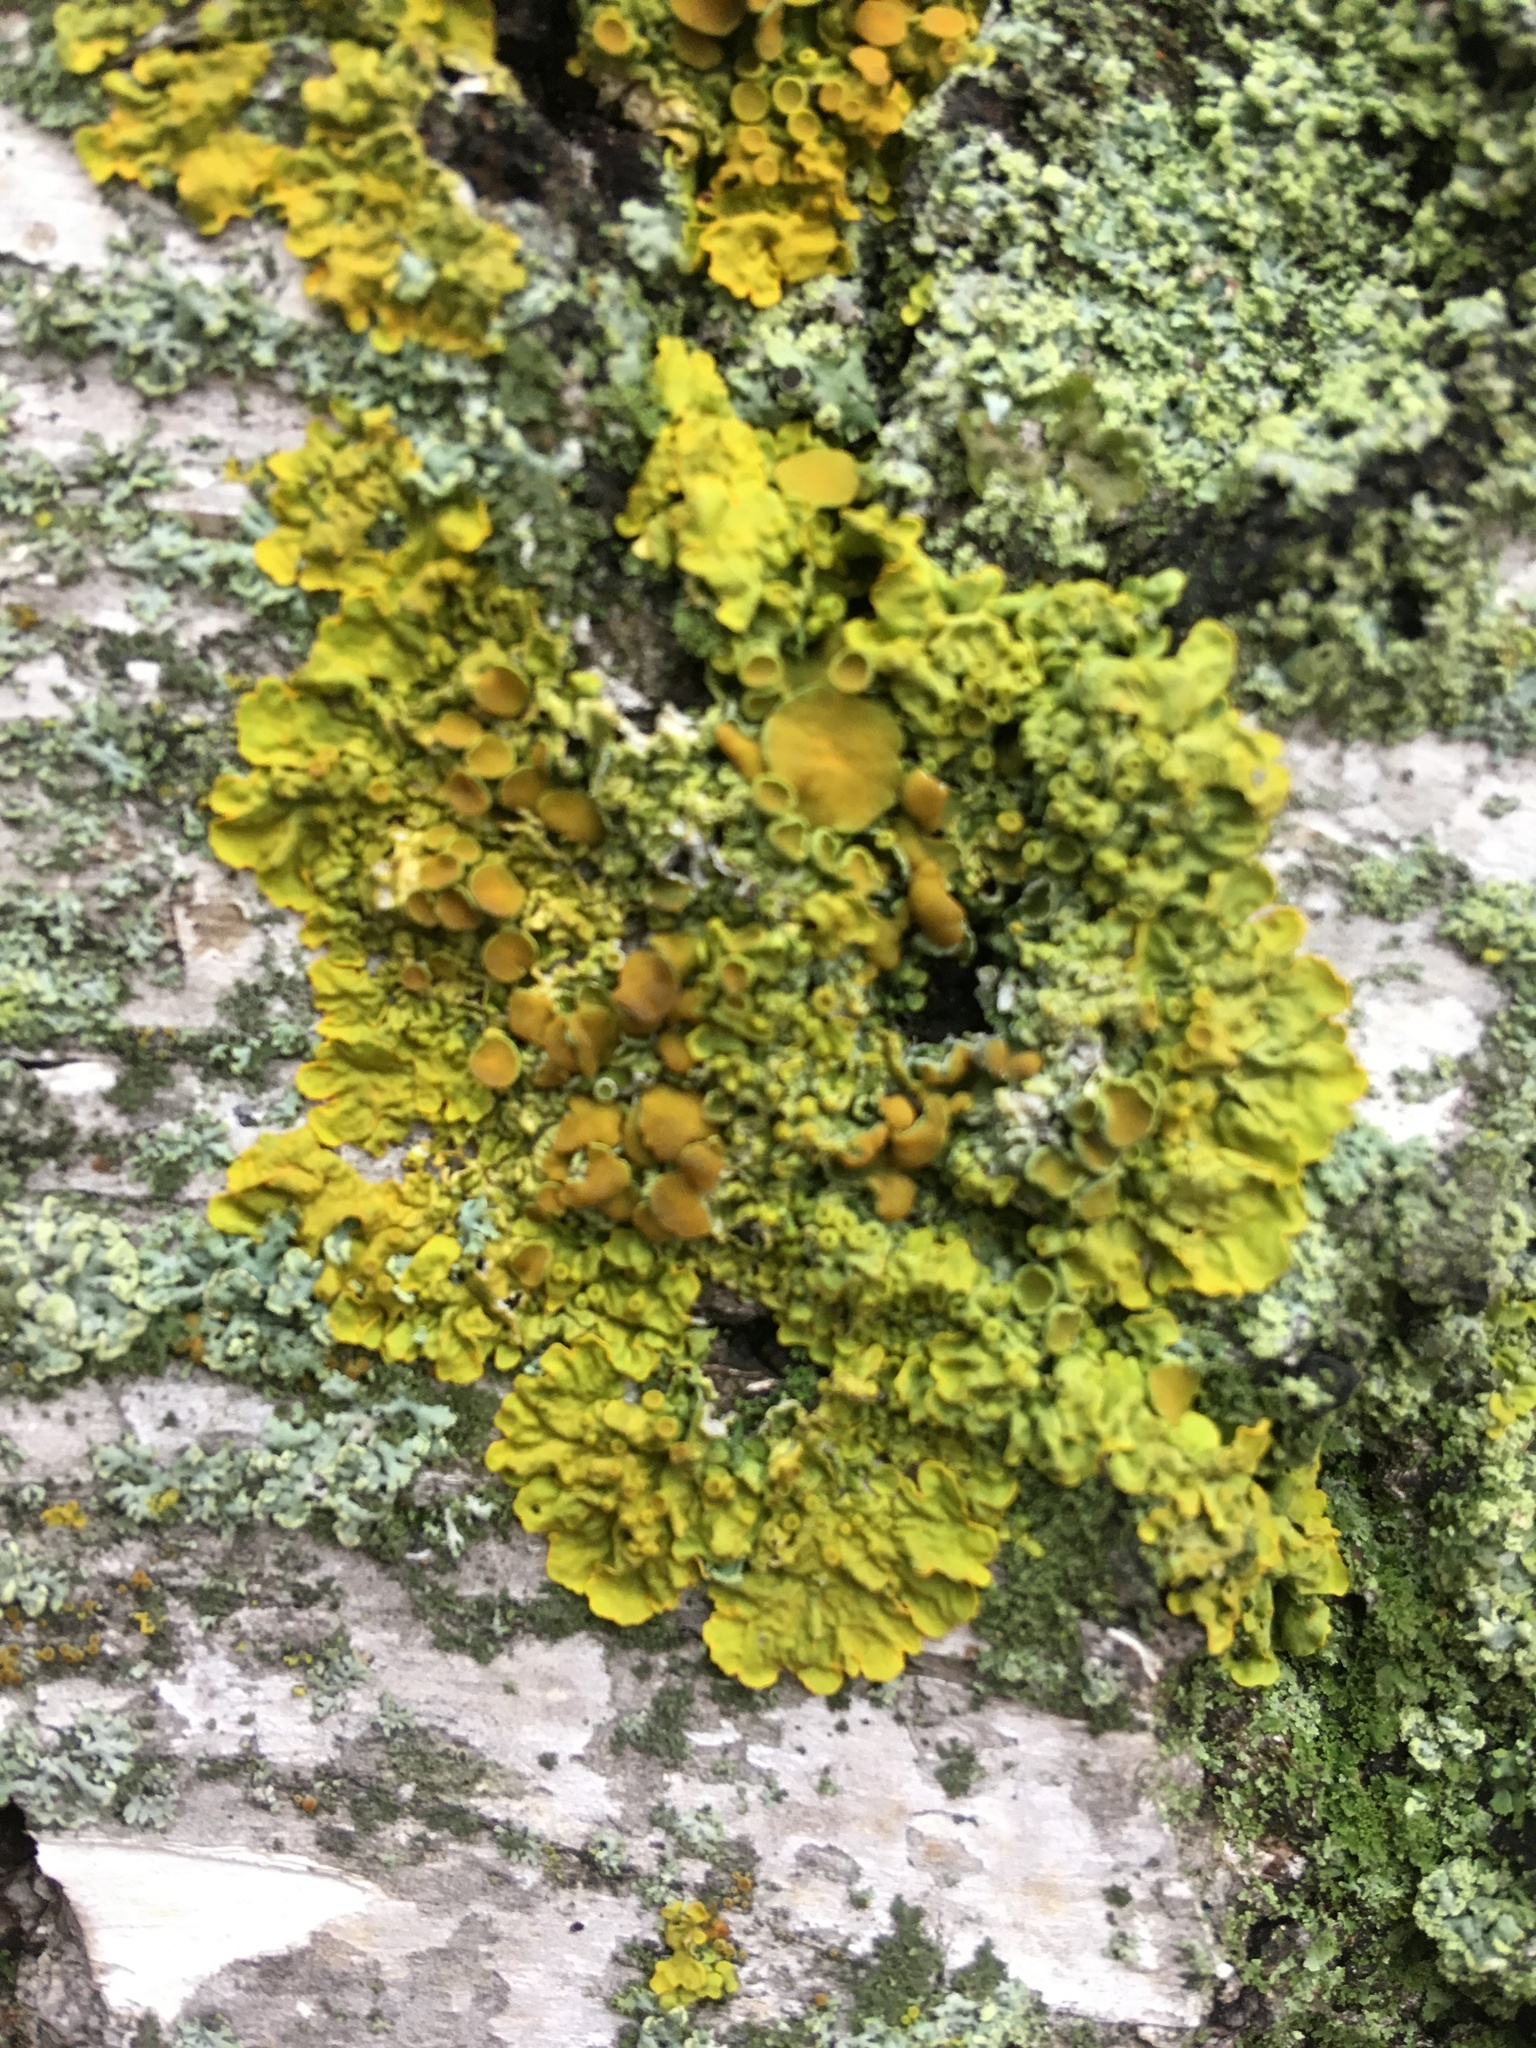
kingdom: Fungi
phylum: Ascomycota
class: Lecanoromycetes
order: Teloschistales
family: Teloschistaceae
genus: Xanthoria
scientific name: Xanthoria parietina
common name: Common orange lichen
